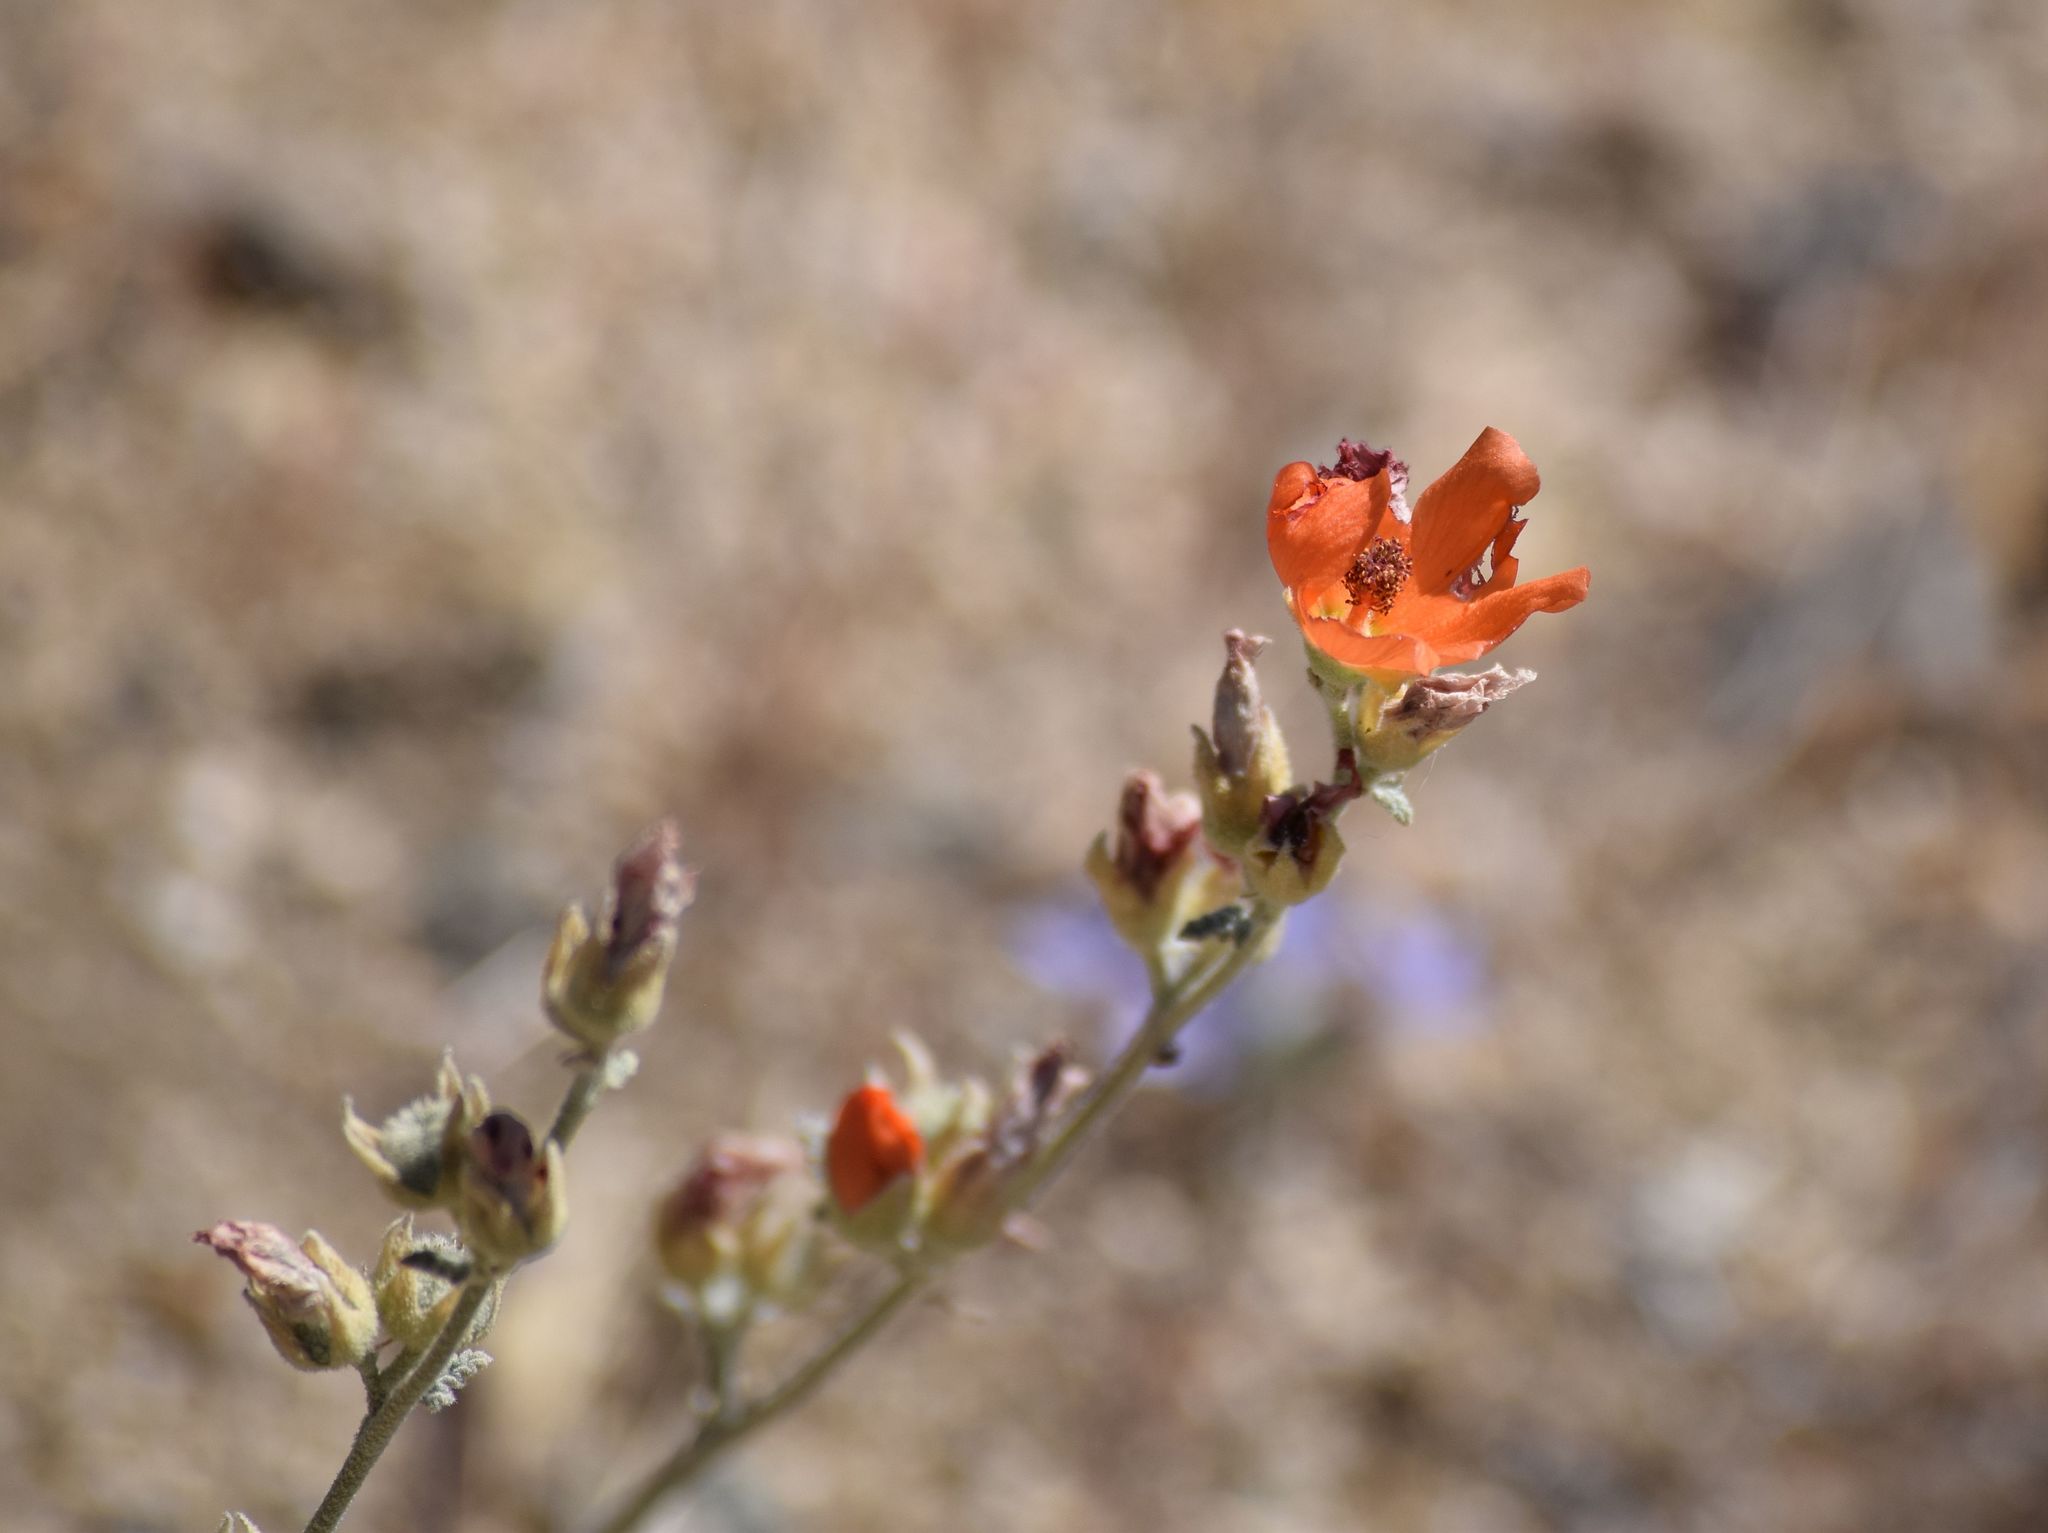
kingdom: Plantae
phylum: Tracheophyta
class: Magnoliopsida
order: Malvales
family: Malvaceae
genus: Sphaeralcea
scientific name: Sphaeralcea ambigua
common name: Apricot globe-mallow
